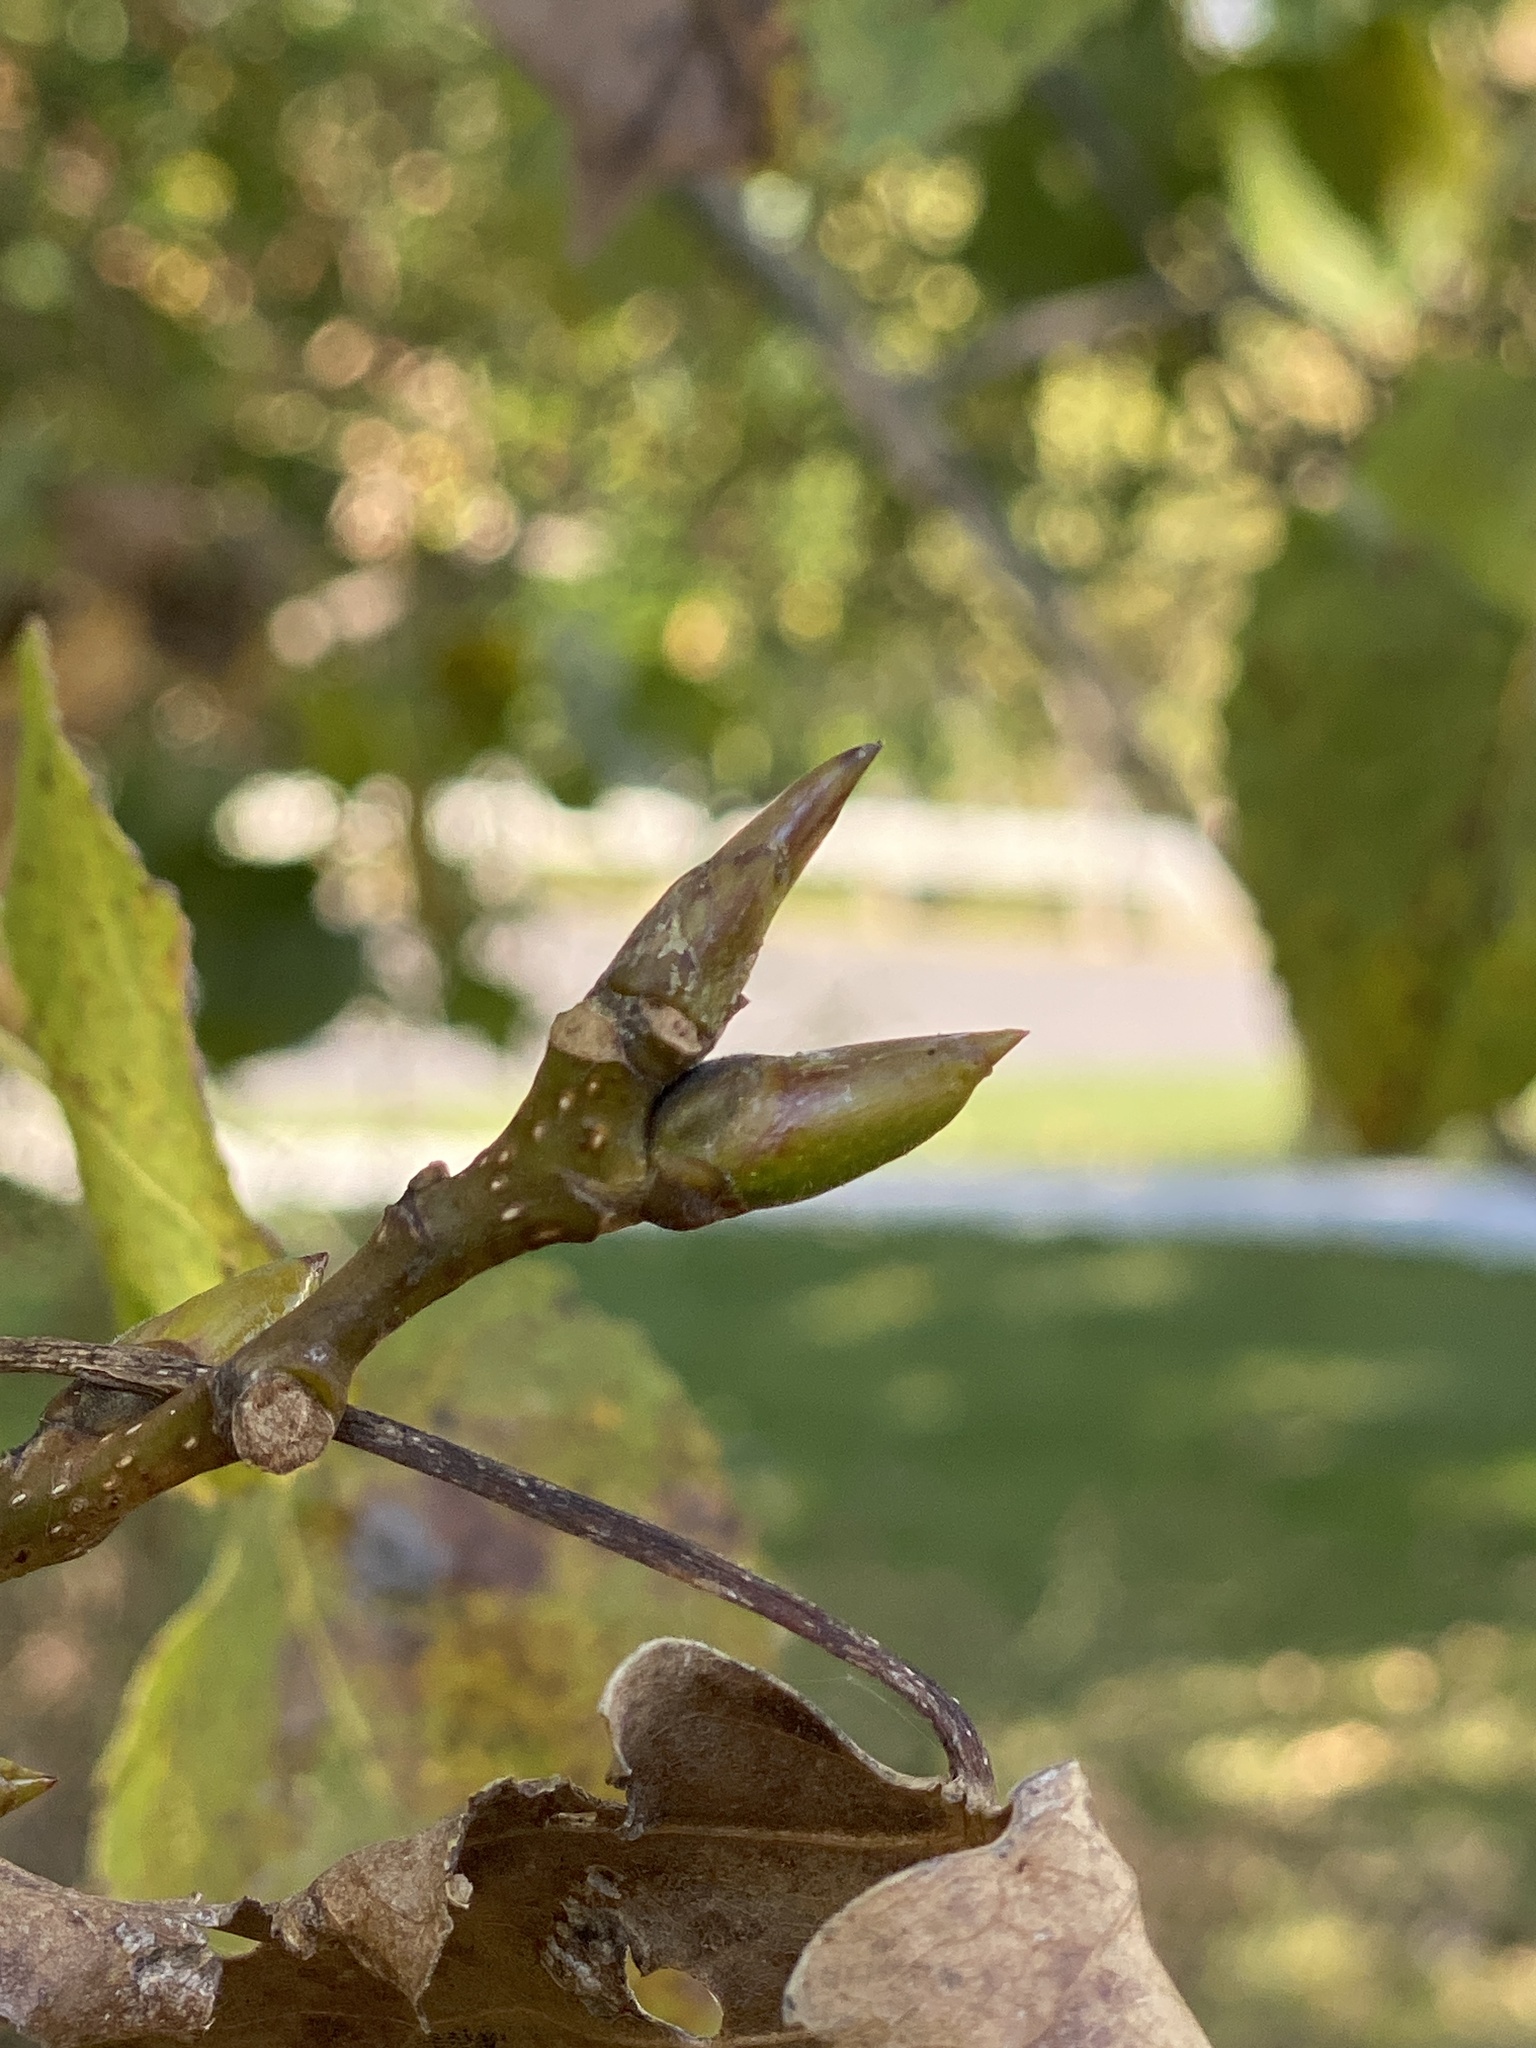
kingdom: Plantae
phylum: Tracheophyta
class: Magnoliopsida
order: Malpighiales
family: Salicaceae
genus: Populus
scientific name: Populus deltoides
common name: Eastern cottonwood
